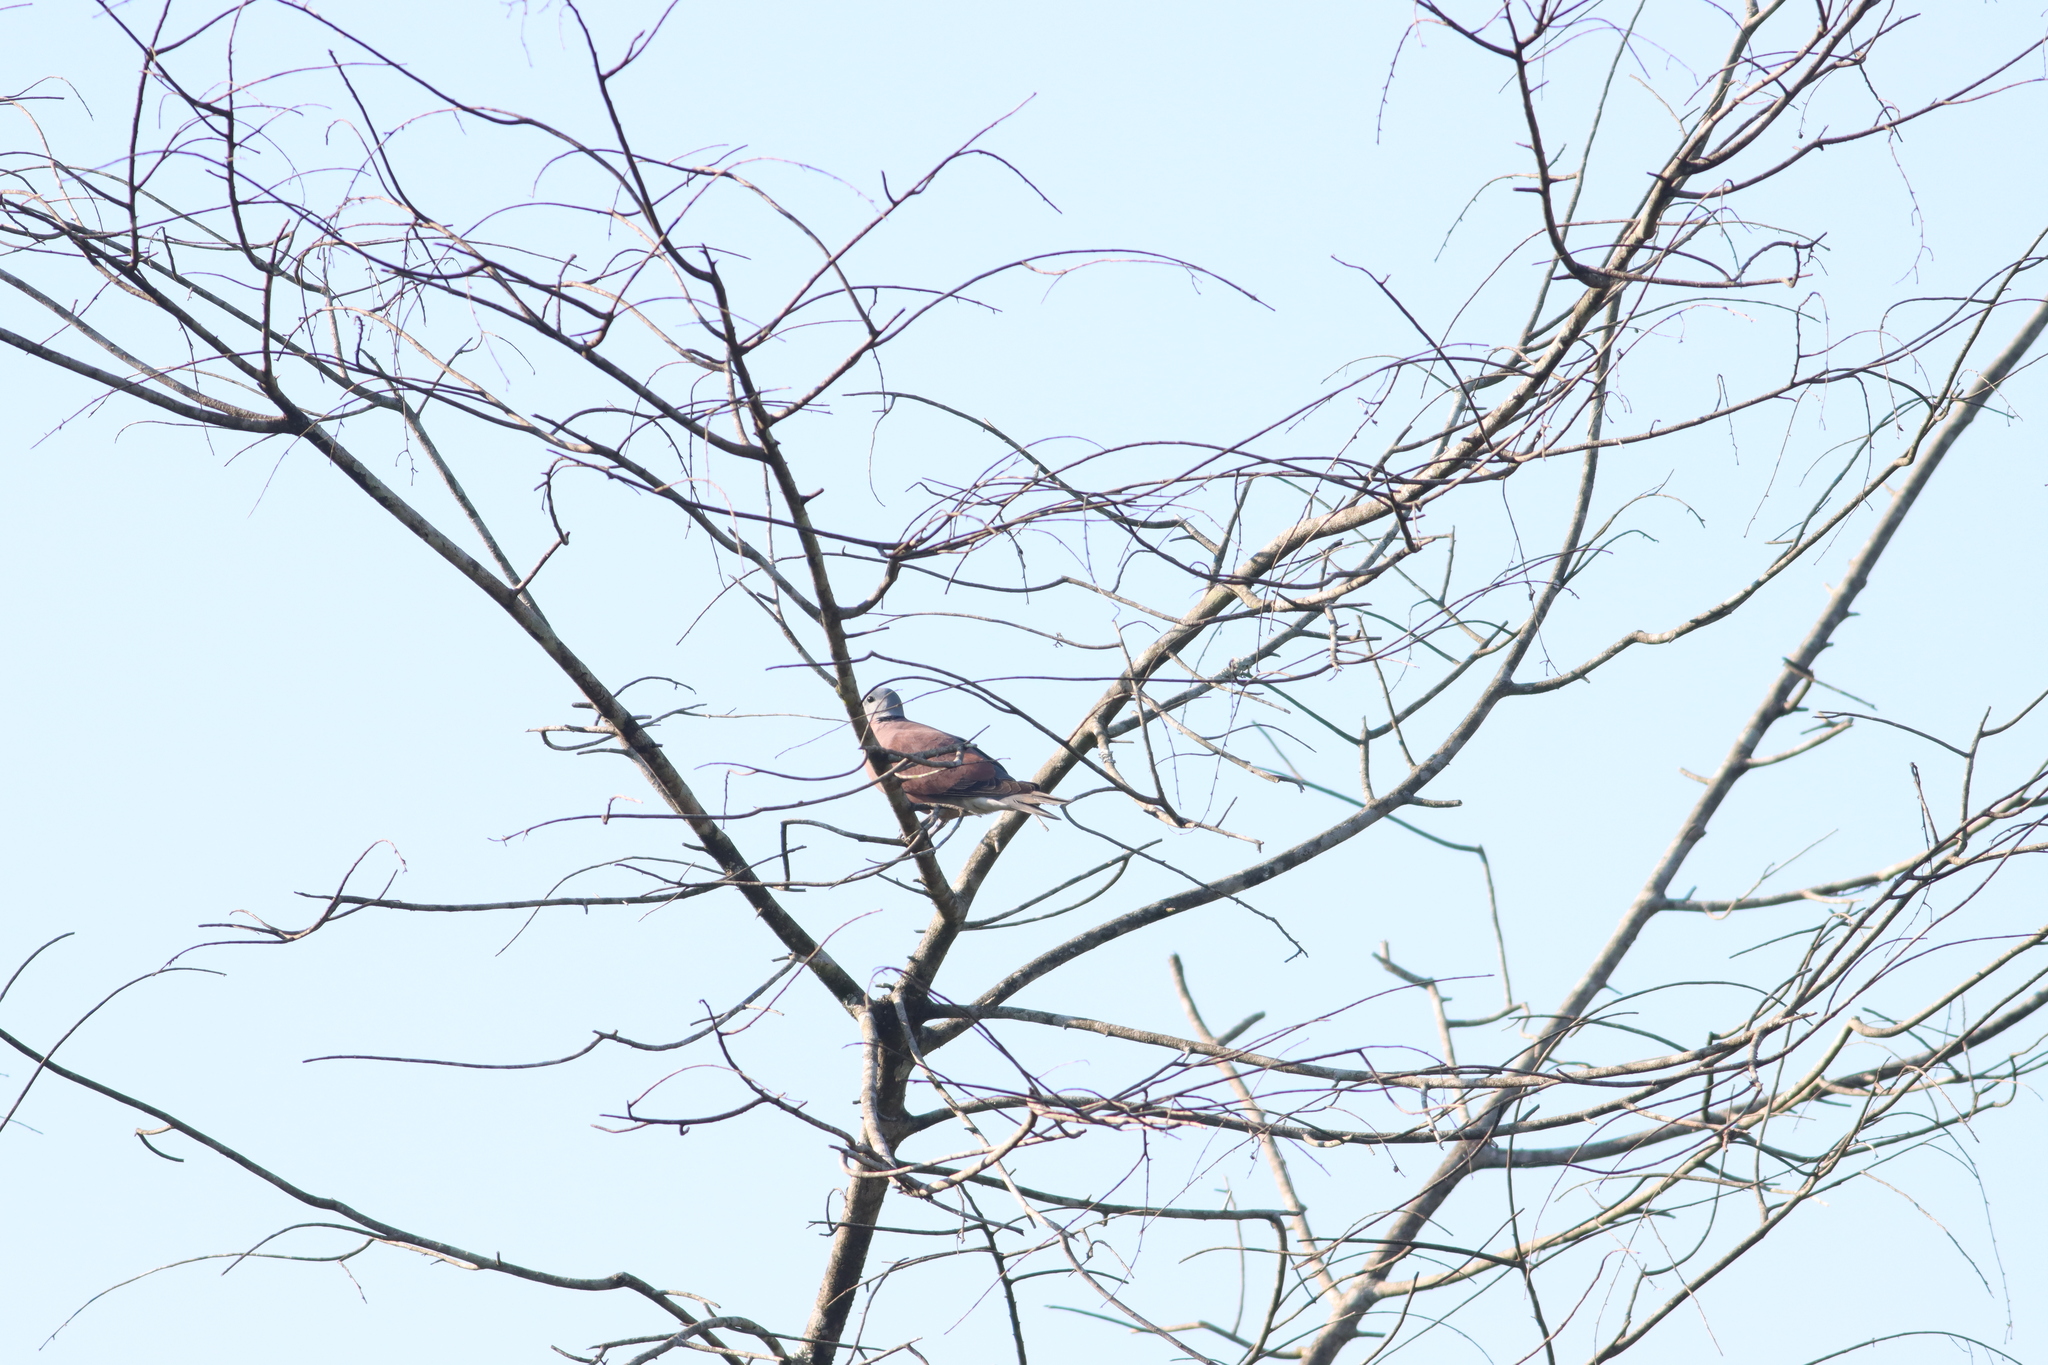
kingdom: Animalia
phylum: Chordata
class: Aves
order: Columbiformes
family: Columbidae
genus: Streptopelia
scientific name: Streptopelia tranquebarica
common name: Red turtle dove
